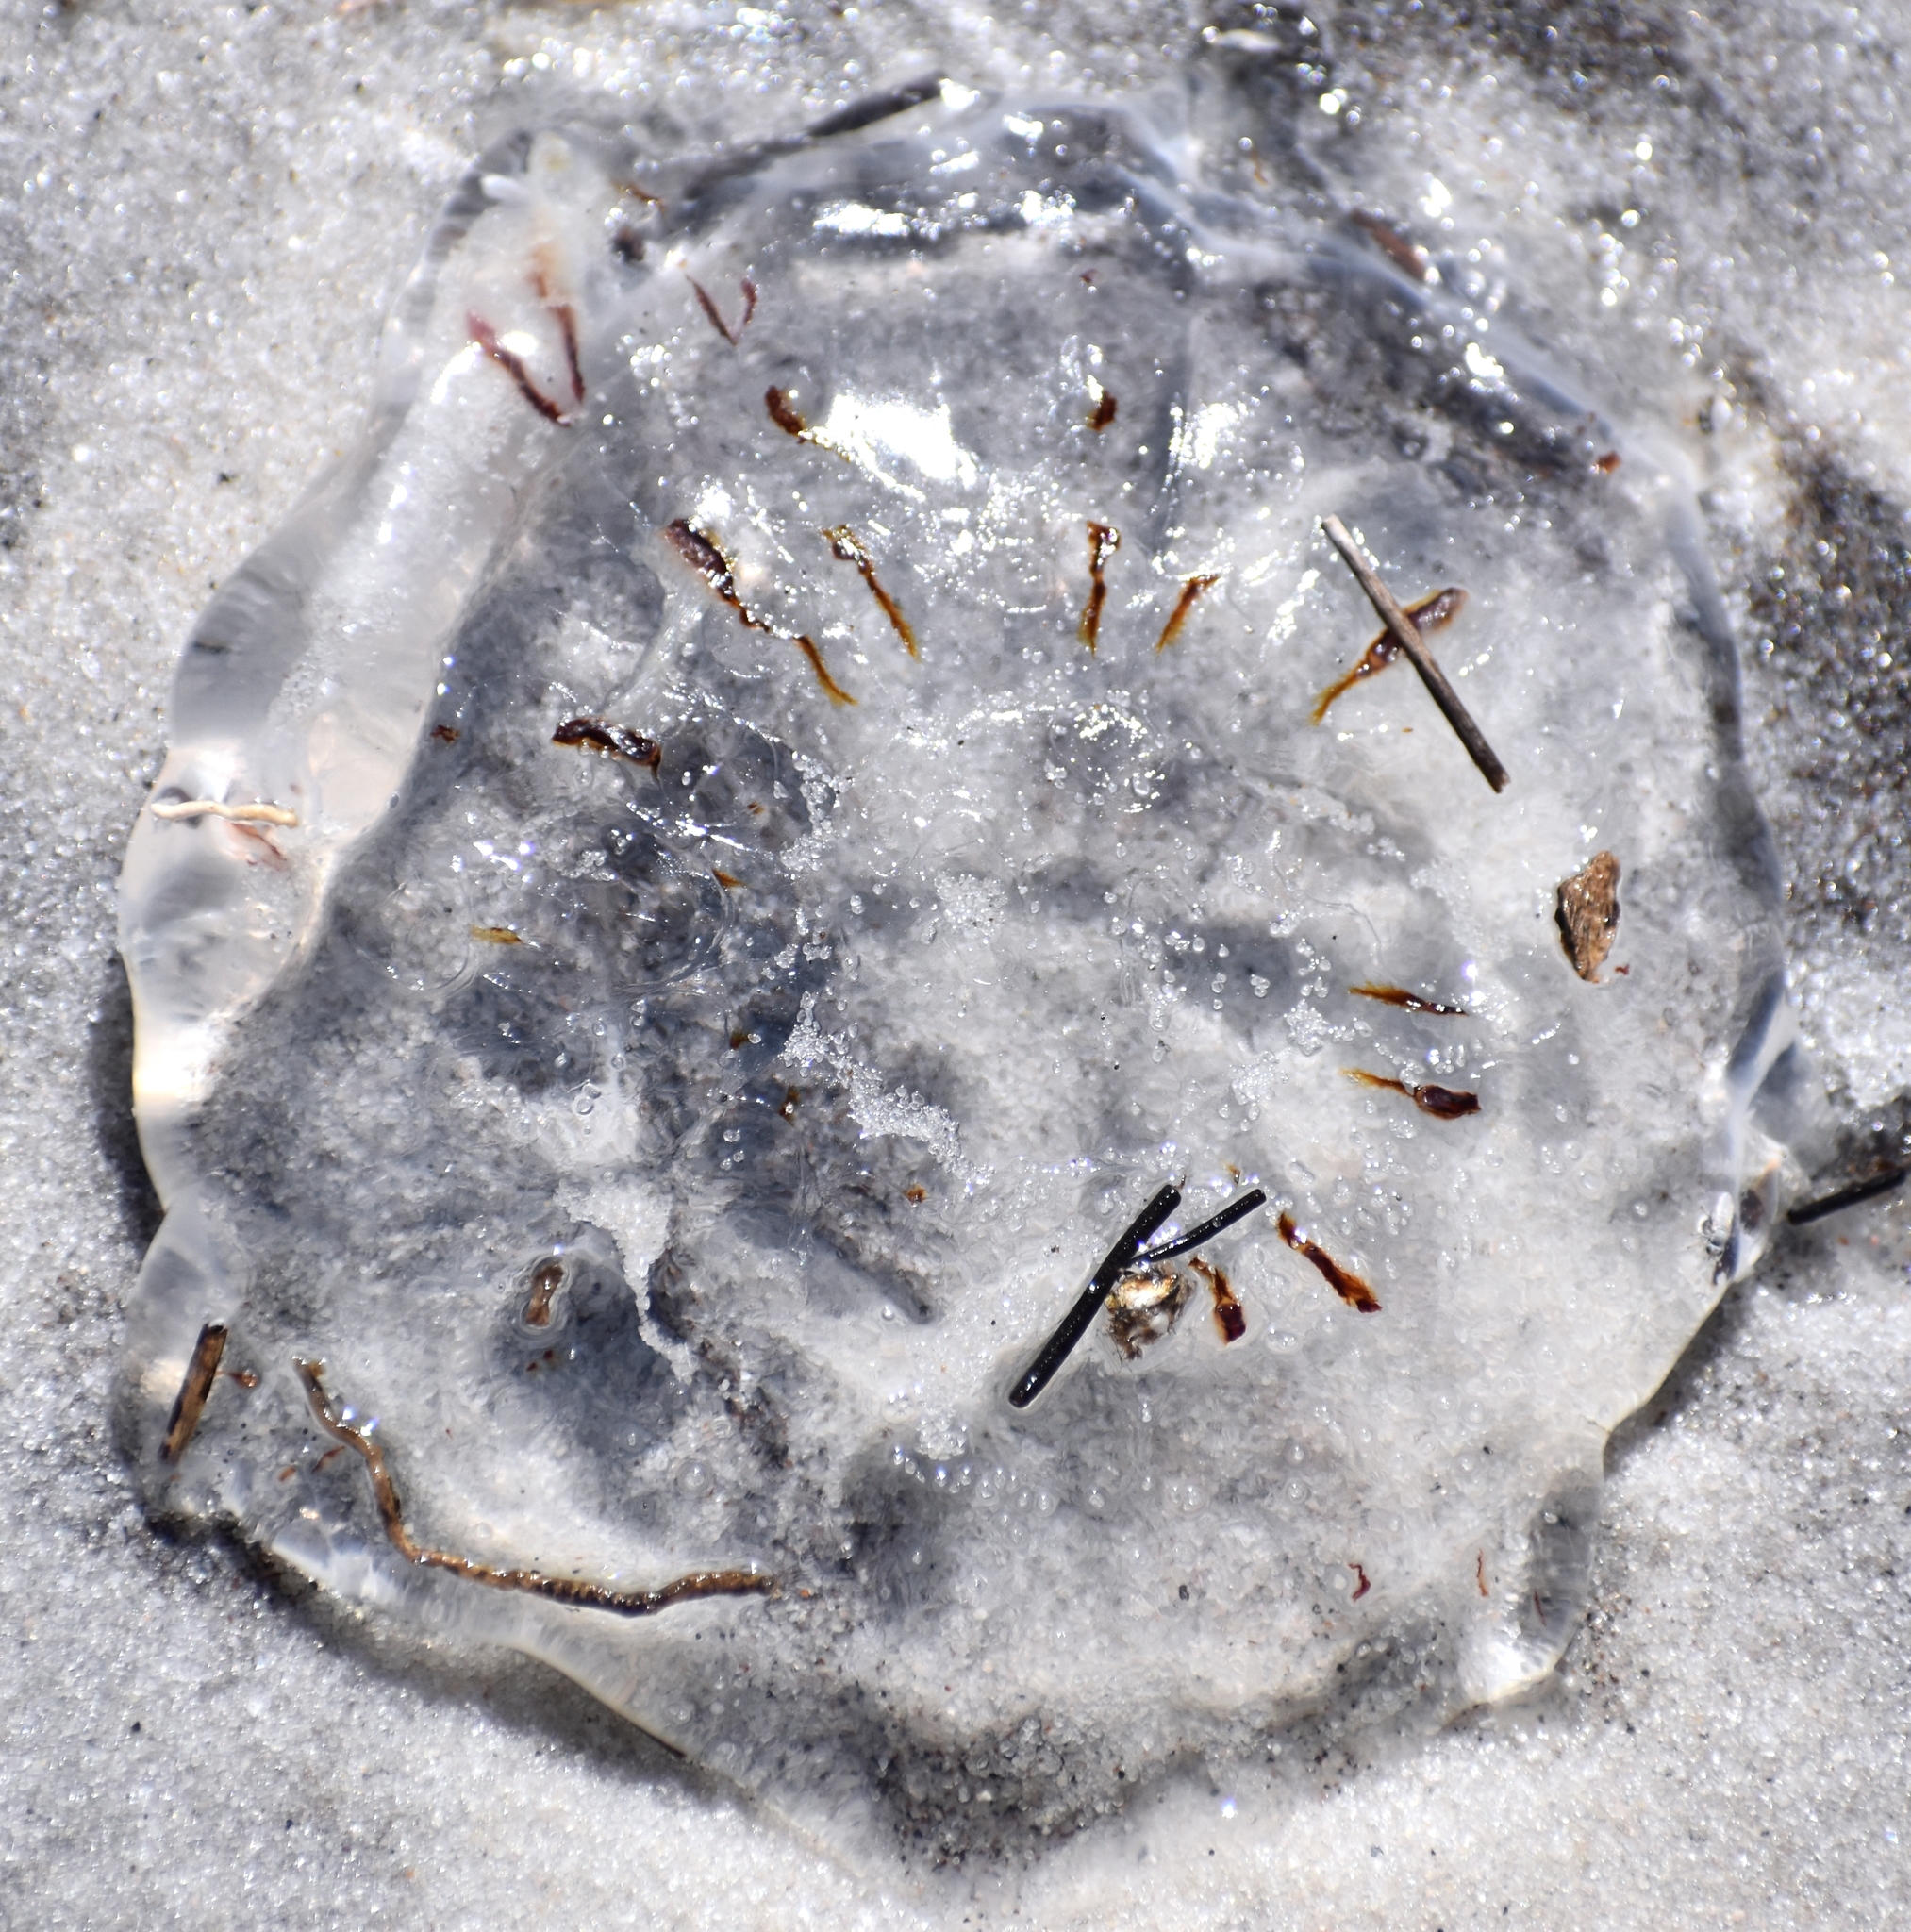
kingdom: Animalia
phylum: Cnidaria
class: Scyphozoa
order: Semaeostomeae
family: Cyaneidae
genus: Cyanea
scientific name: Cyanea versicolor
